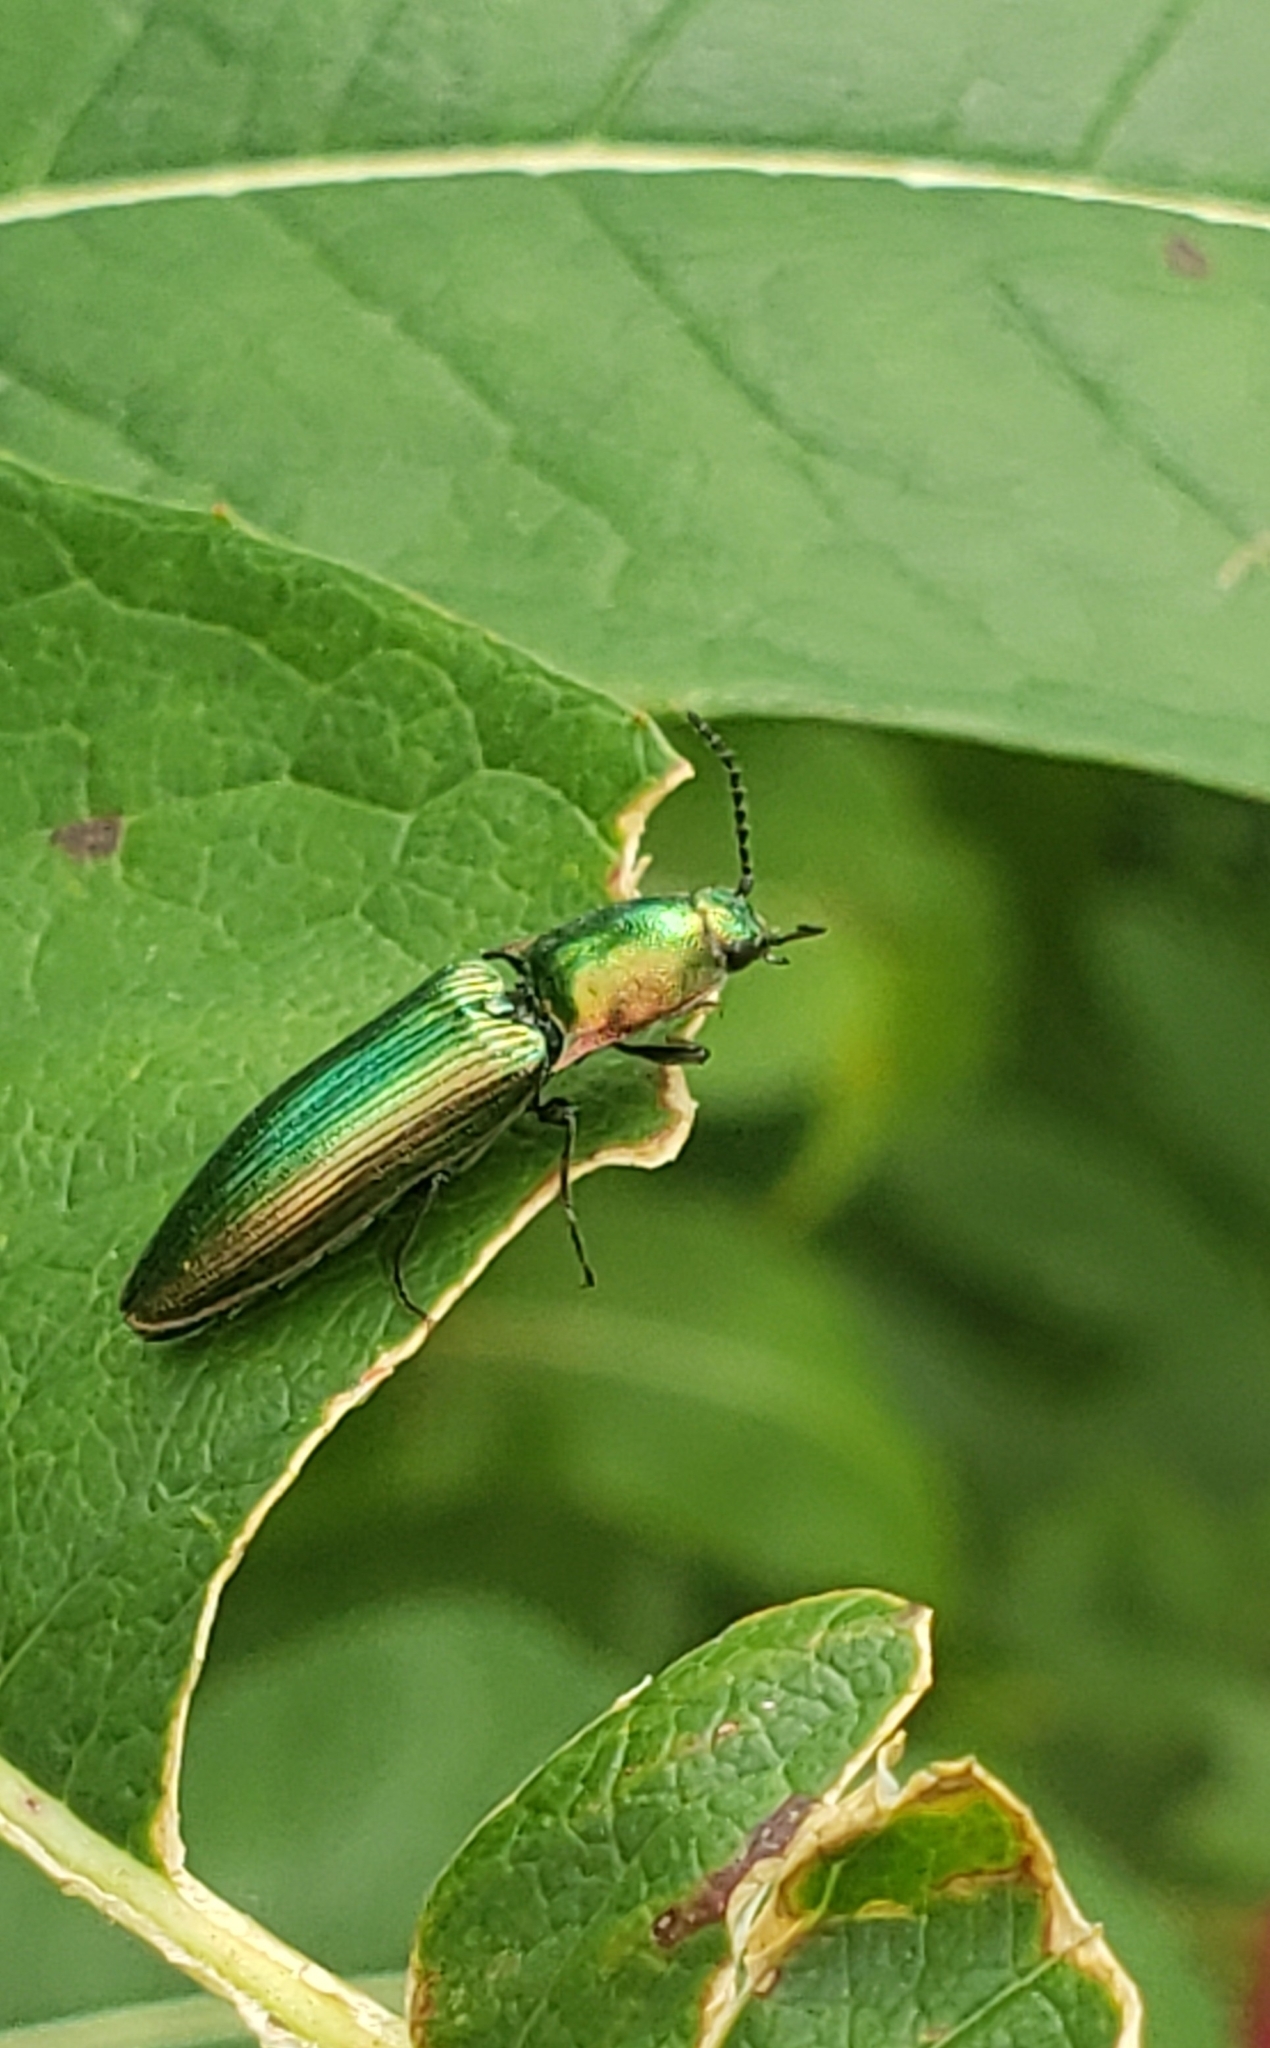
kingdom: Animalia
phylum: Arthropoda
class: Insecta
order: Coleoptera
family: Elateridae
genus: Nitidolimonius
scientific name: Nitidolimonius resplendens
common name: Resplendent click beetle
